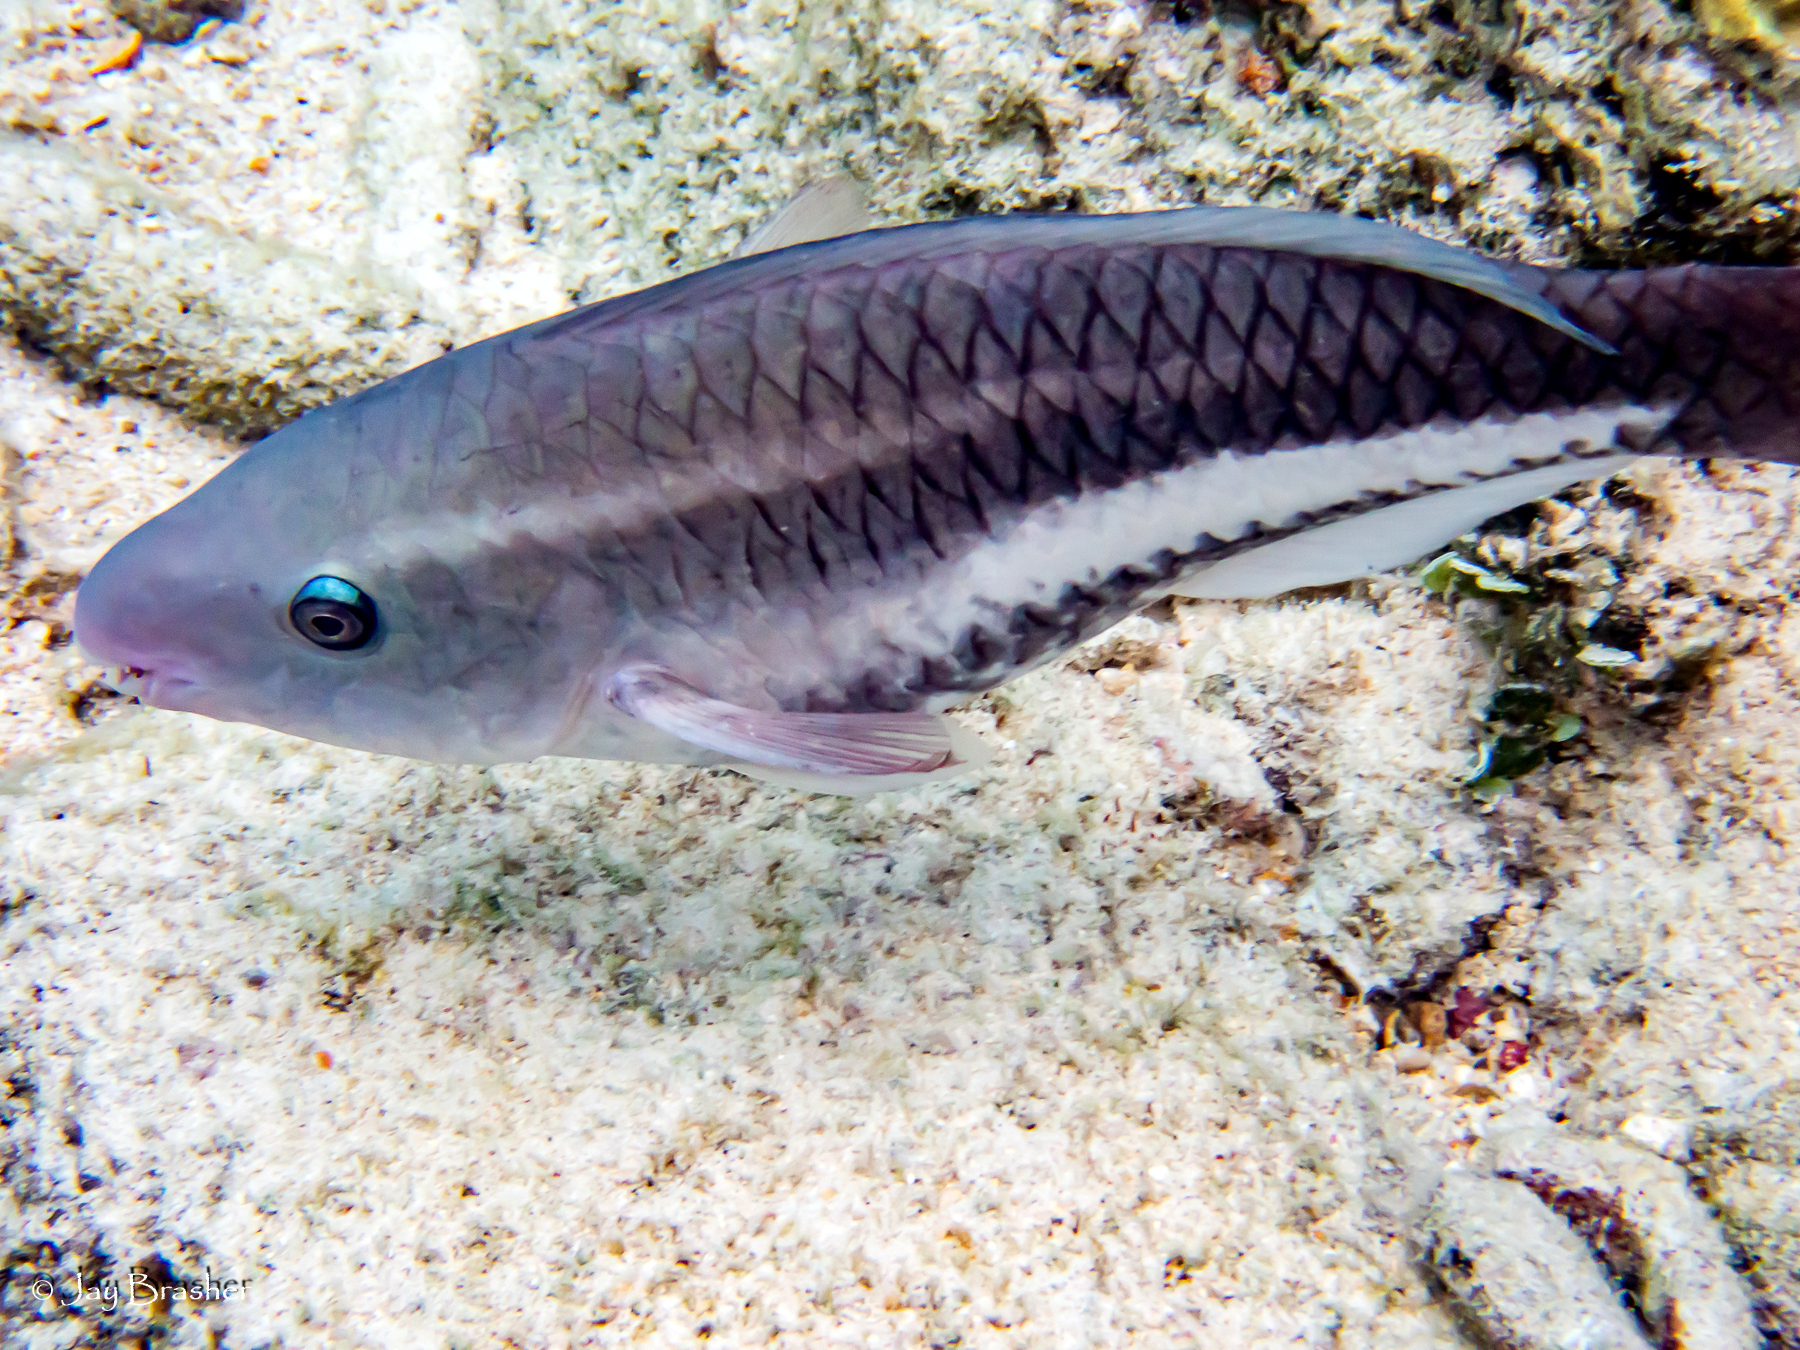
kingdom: Animalia
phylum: Chordata
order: Perciformes
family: Scaridae
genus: Scarus
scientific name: Scarus vetula
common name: Queen parrotfish
